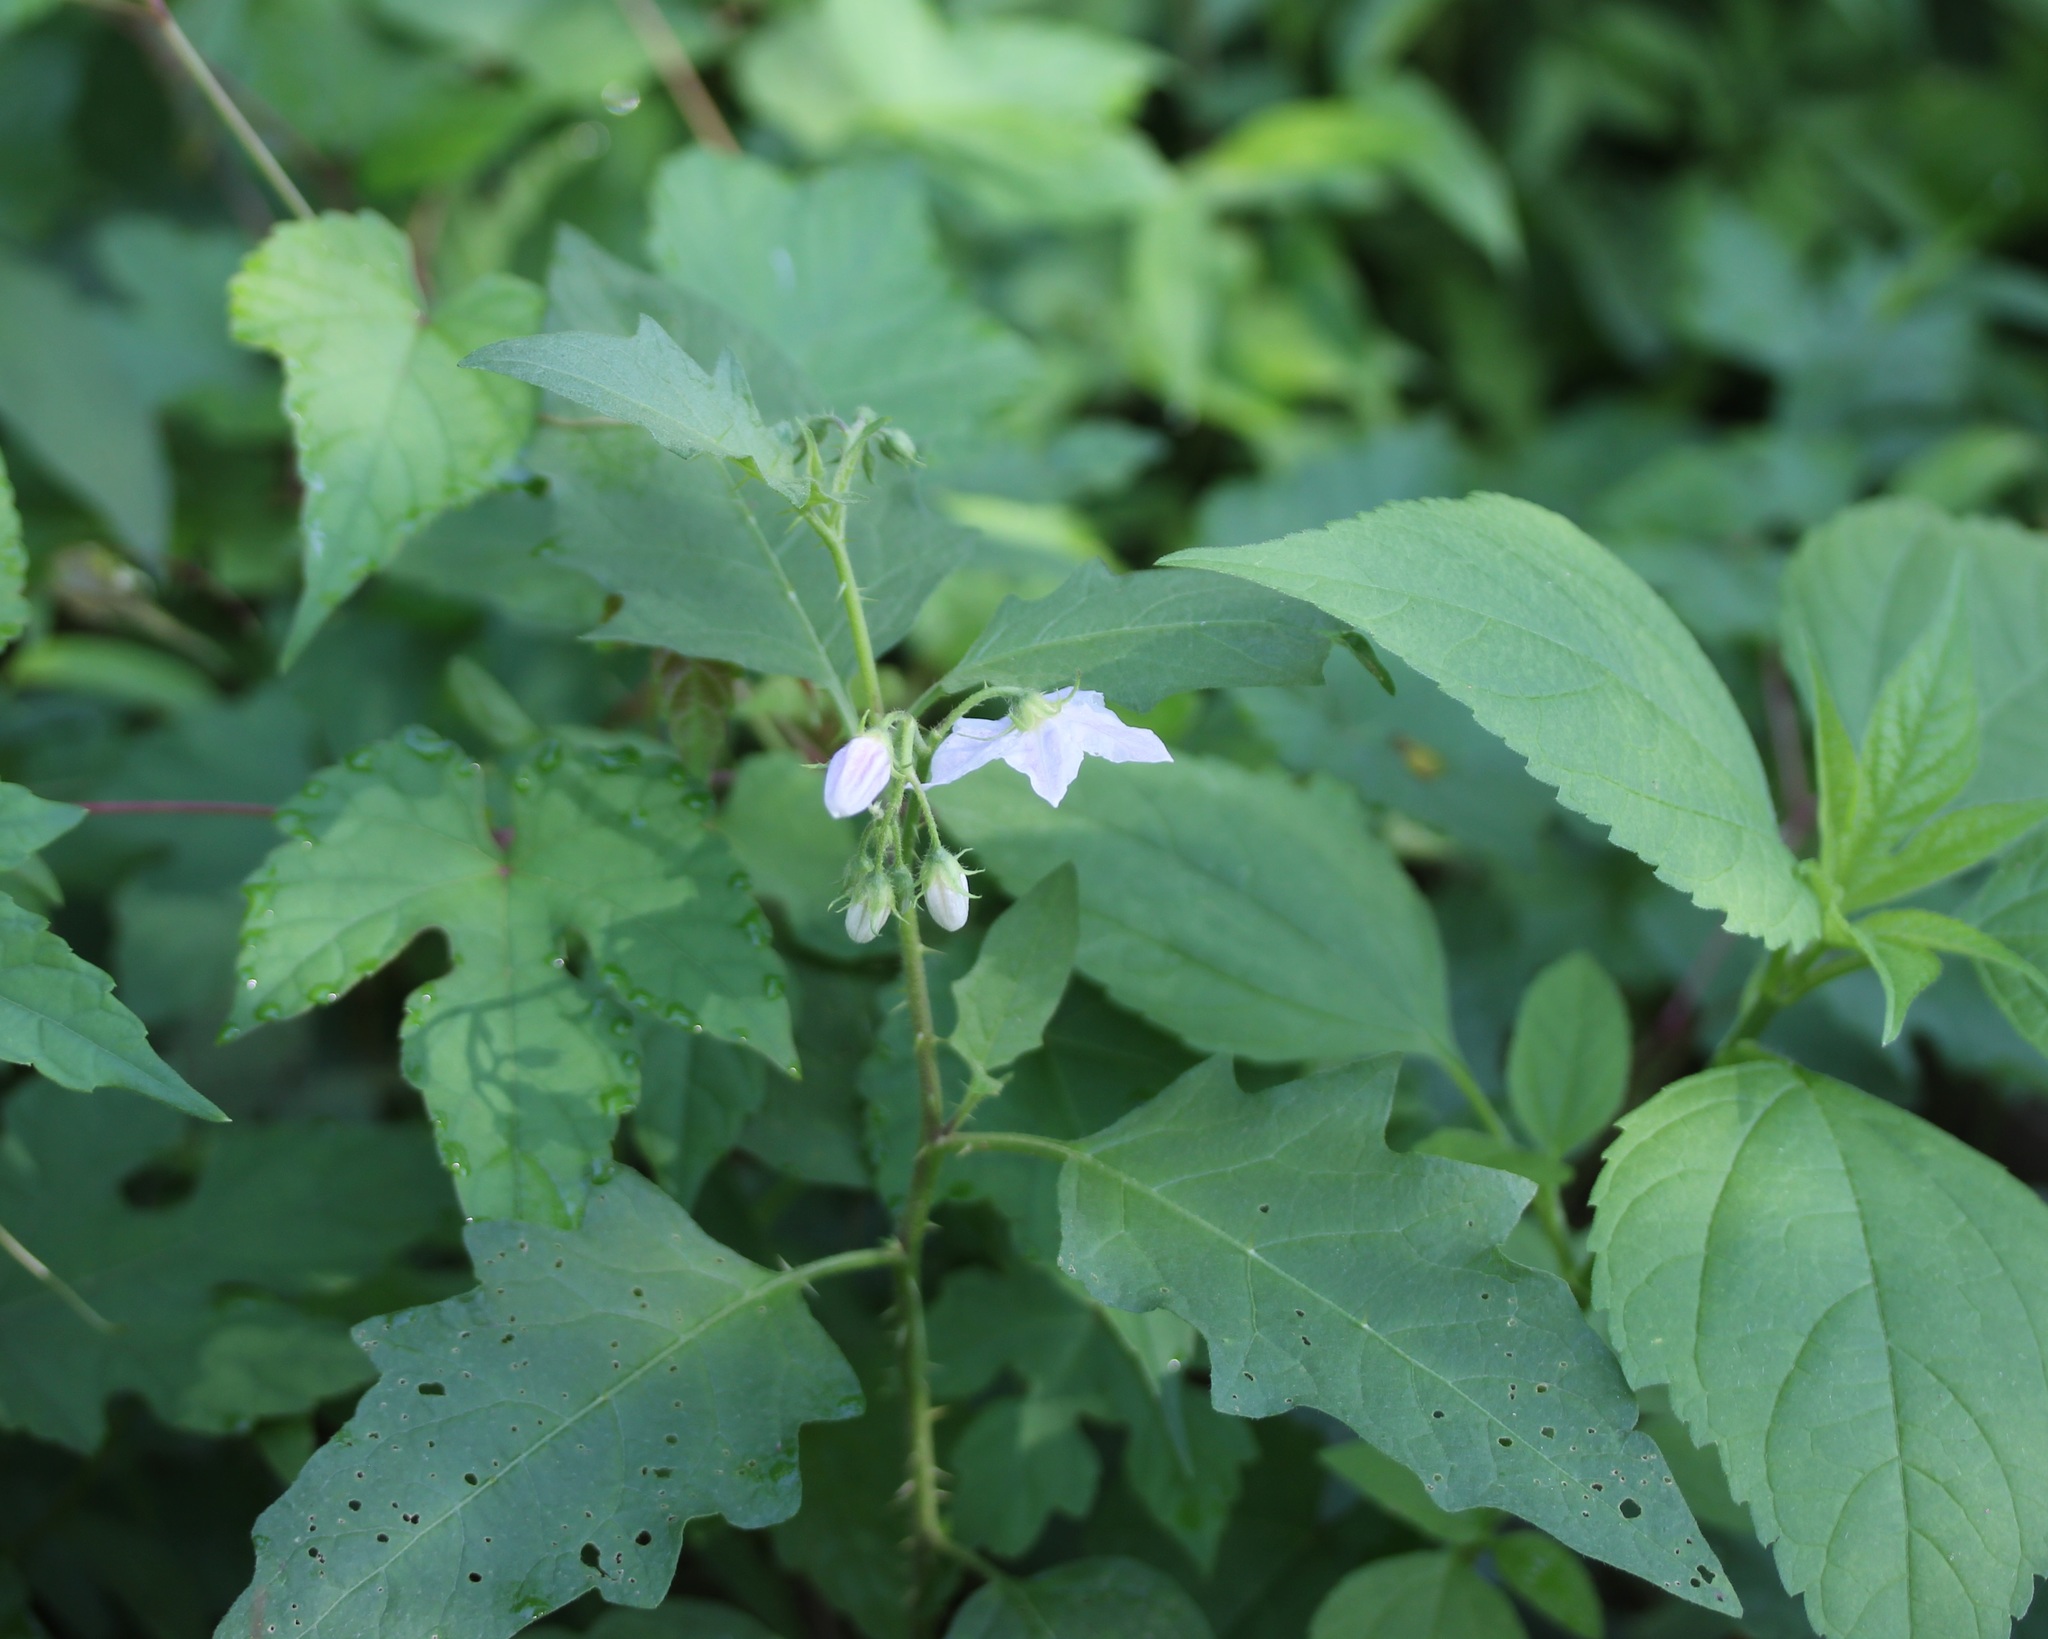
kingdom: Plantae
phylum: Tracheophyta
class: Magnoliopsida
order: Solanales
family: Solanaceae
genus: Solanum
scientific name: Solanum carolinense
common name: Horse-nettle
